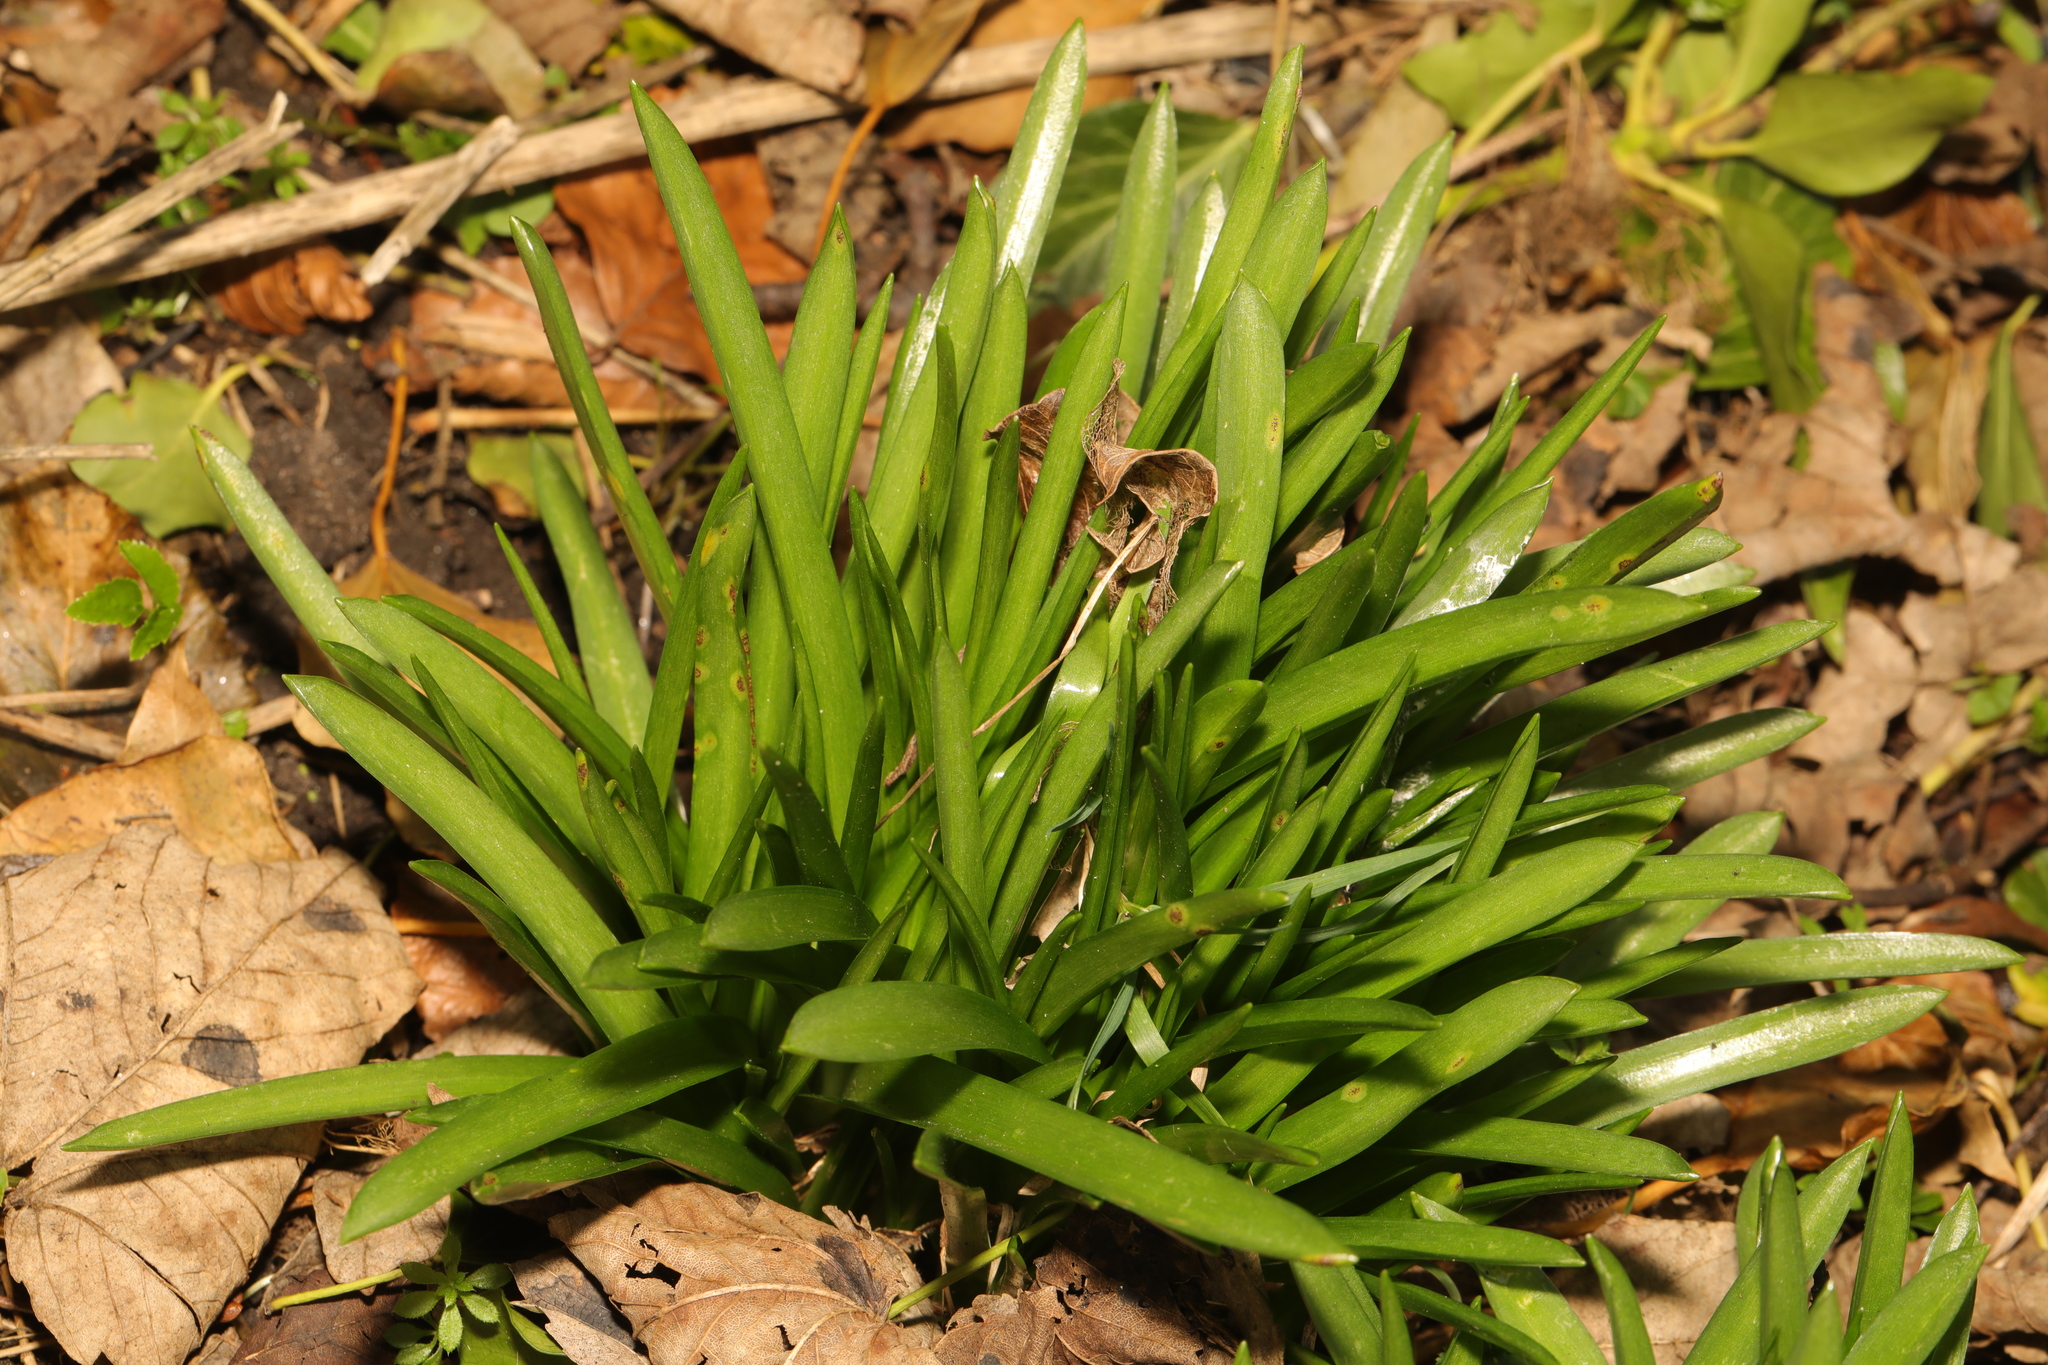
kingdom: Plantae
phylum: Tracheophyta
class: Liliopsida
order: Asparagales
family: Asparagaceae
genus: Hyacinthoides
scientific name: Hyacinthoides massartiana
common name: Hyacinthoides
